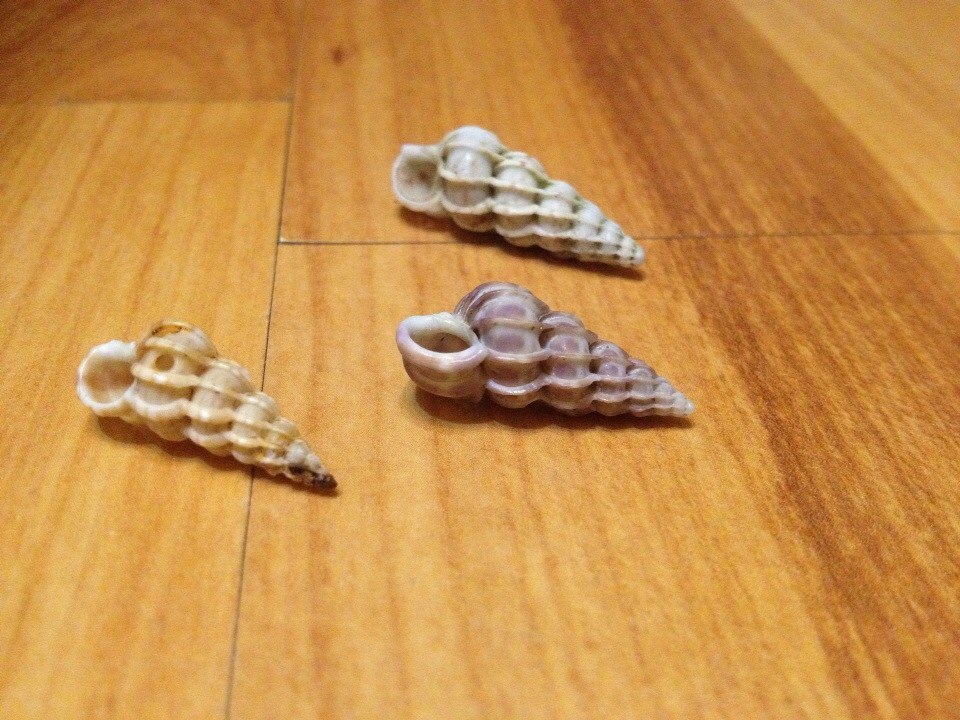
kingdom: Animalia
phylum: Mollusca
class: Gastropoda
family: Epitoniidae
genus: Epitonium
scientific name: Epitonium clathrus
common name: Common wentletrap
